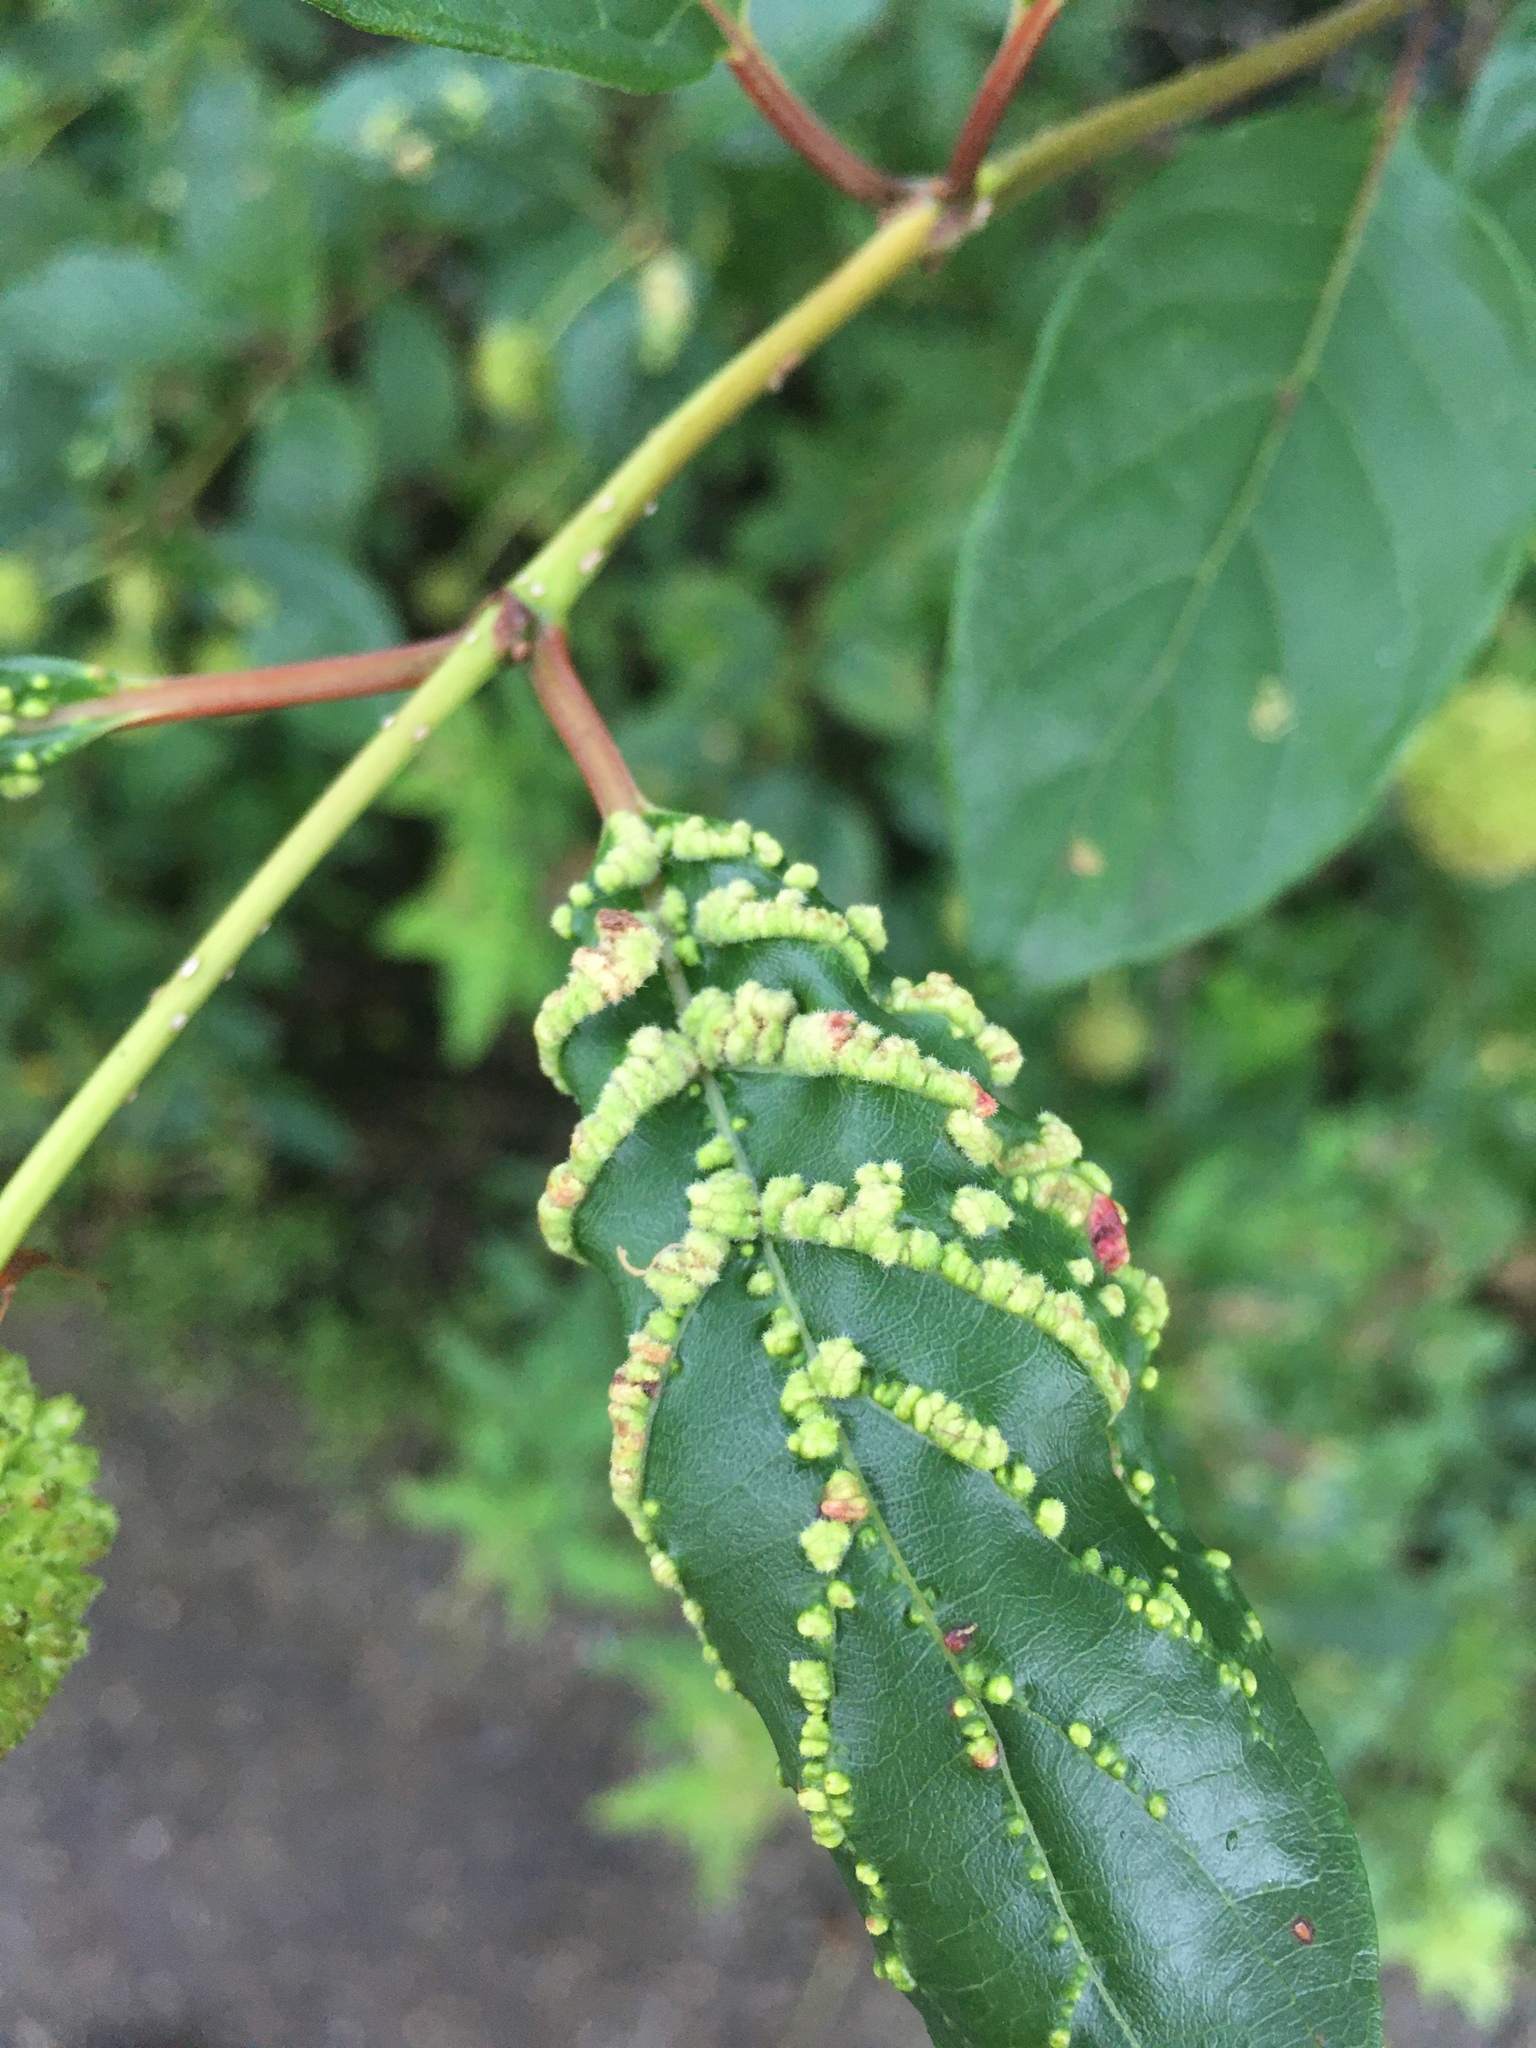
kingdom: Animalia
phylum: Arthropoda
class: Arachnida
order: Trombidiformes
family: Eriophyidae
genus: Aceria
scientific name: Aceria
